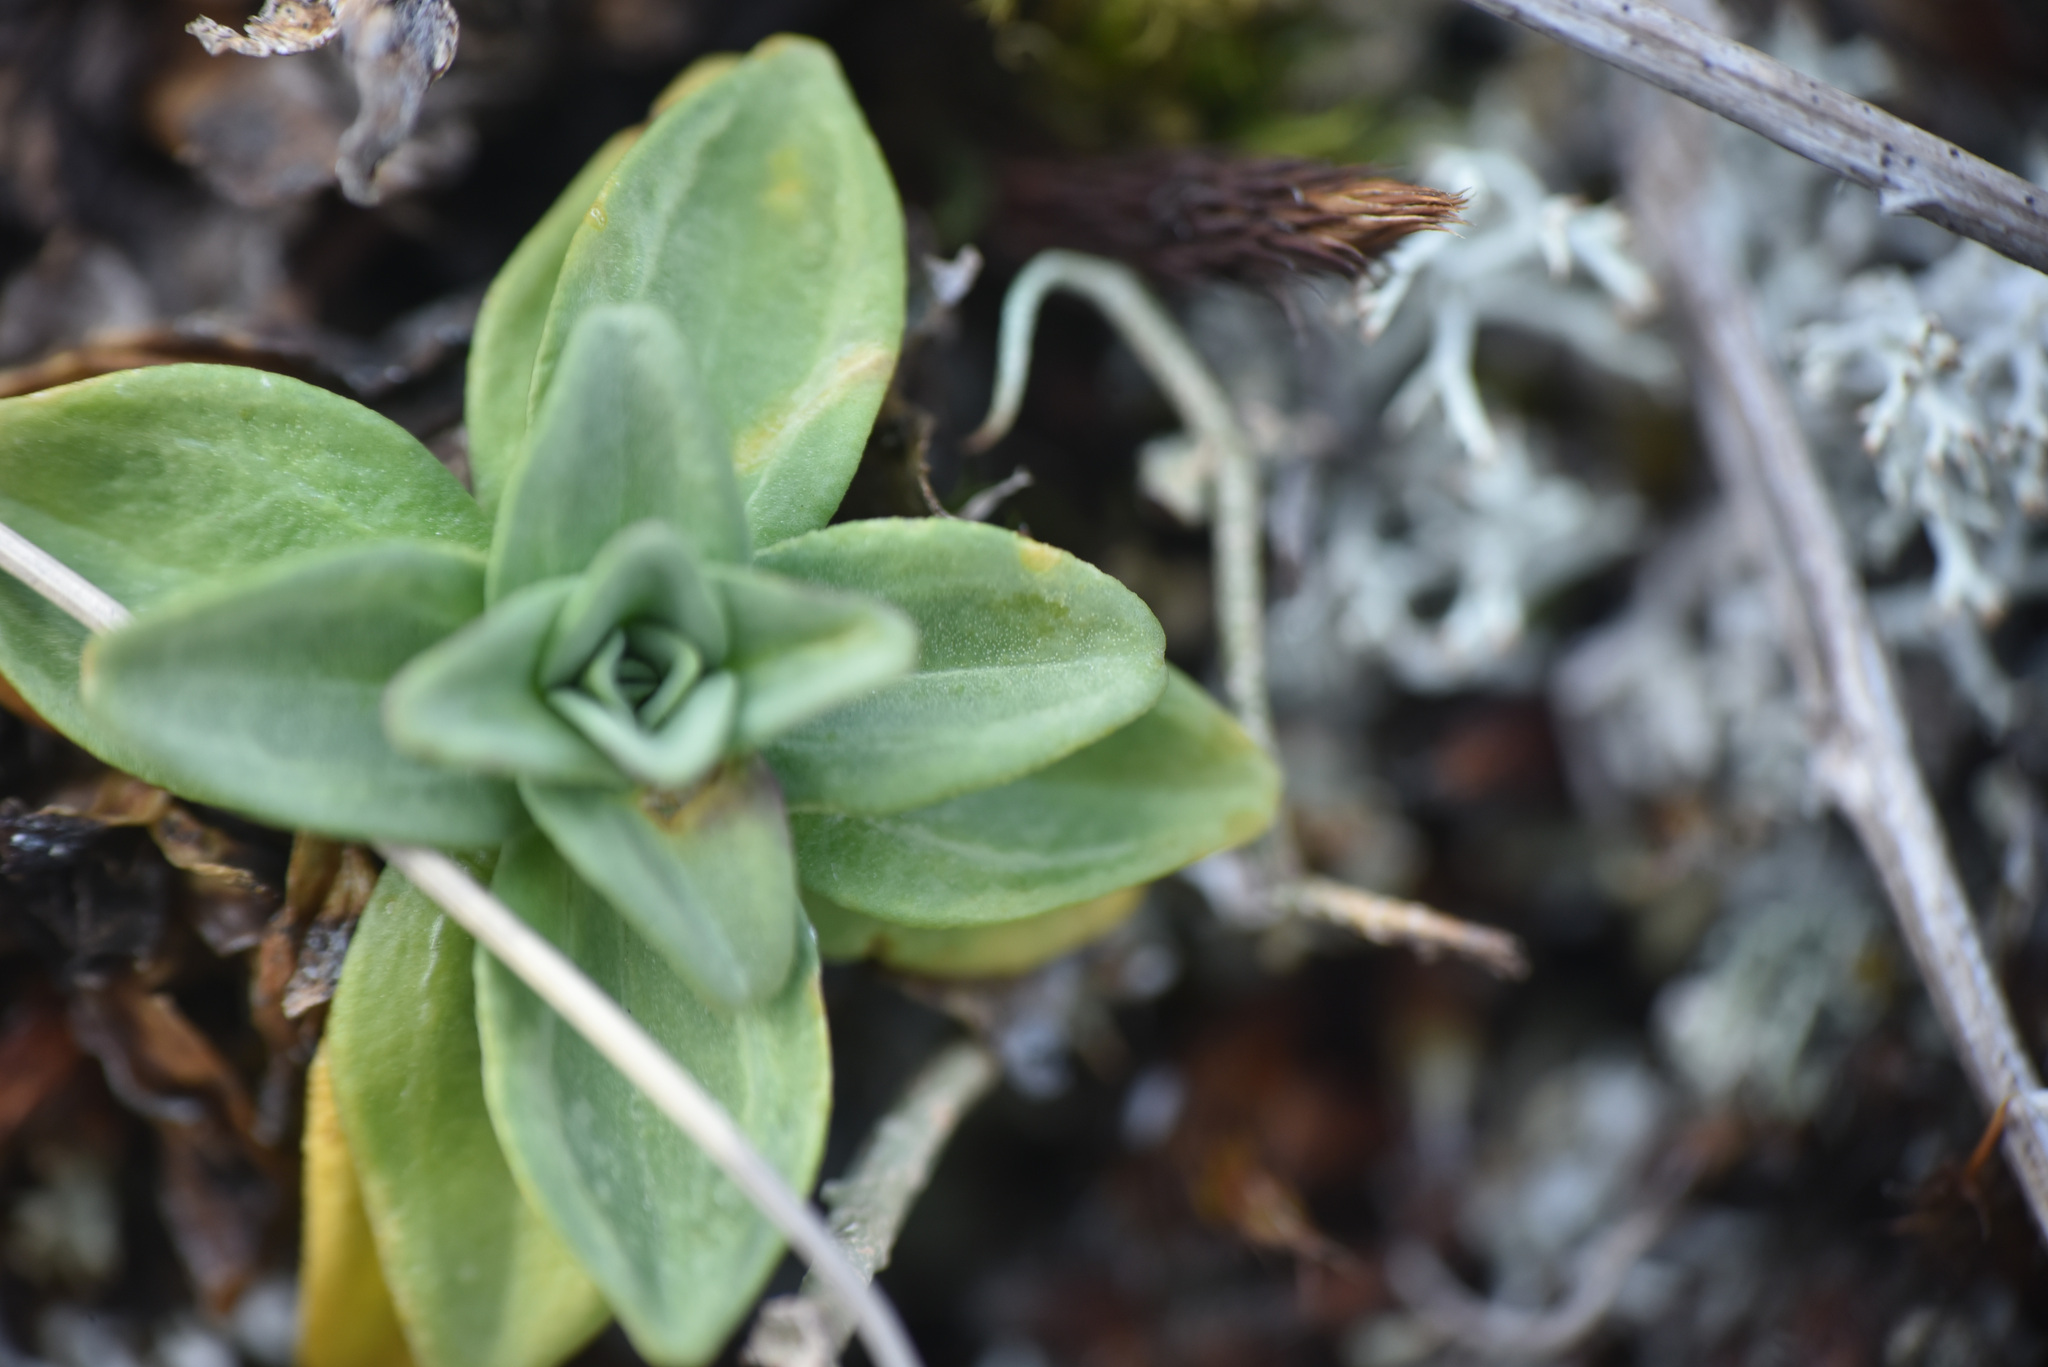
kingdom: Plantae
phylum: Tracheophyta
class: Magnoliopsida
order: Gentianales
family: Gentianaceae
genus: Gentiana
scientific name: Gentiana glauca
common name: Alpine gentian
